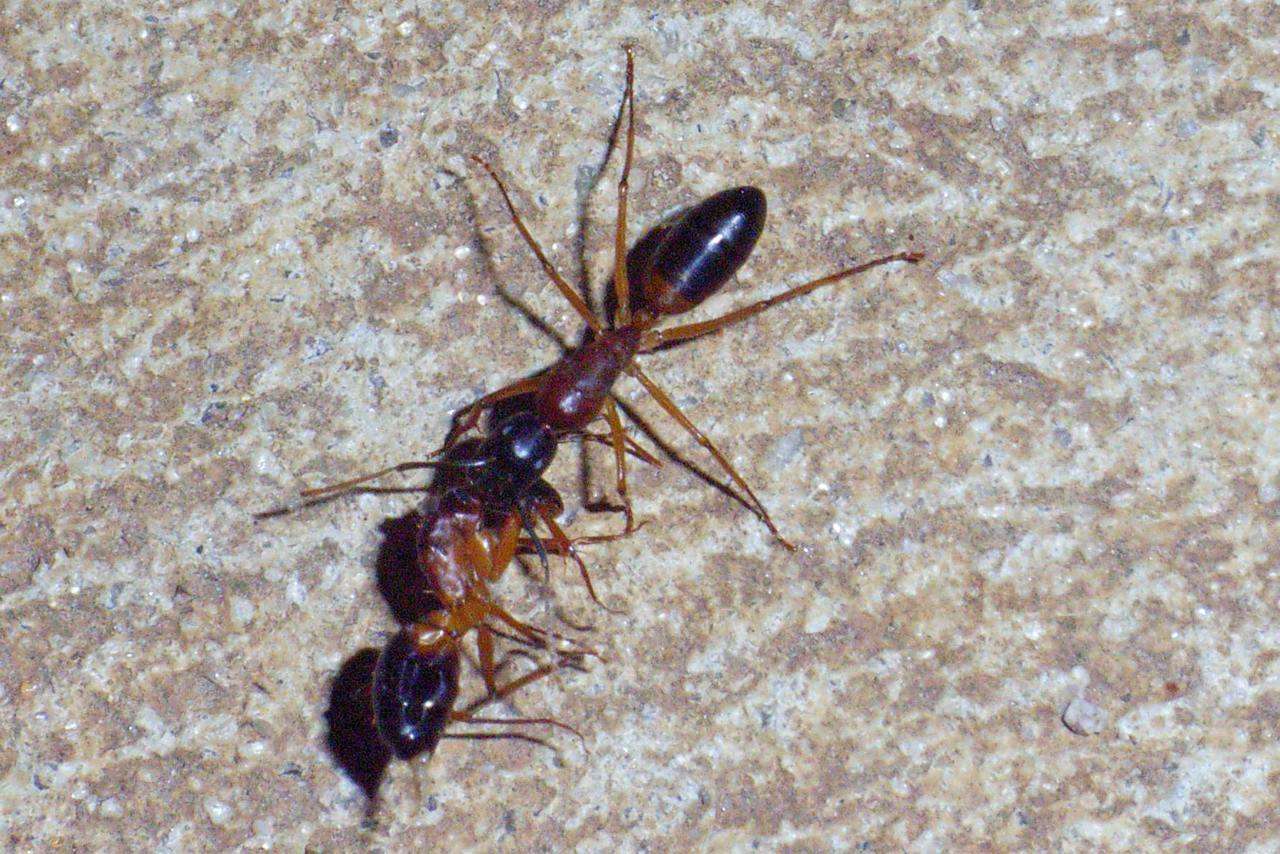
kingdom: Animalia
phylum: Arthropoda
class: Insecta
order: Hymenoptera
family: Formicidae
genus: Camponotus
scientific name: Camponotus consobrinus
